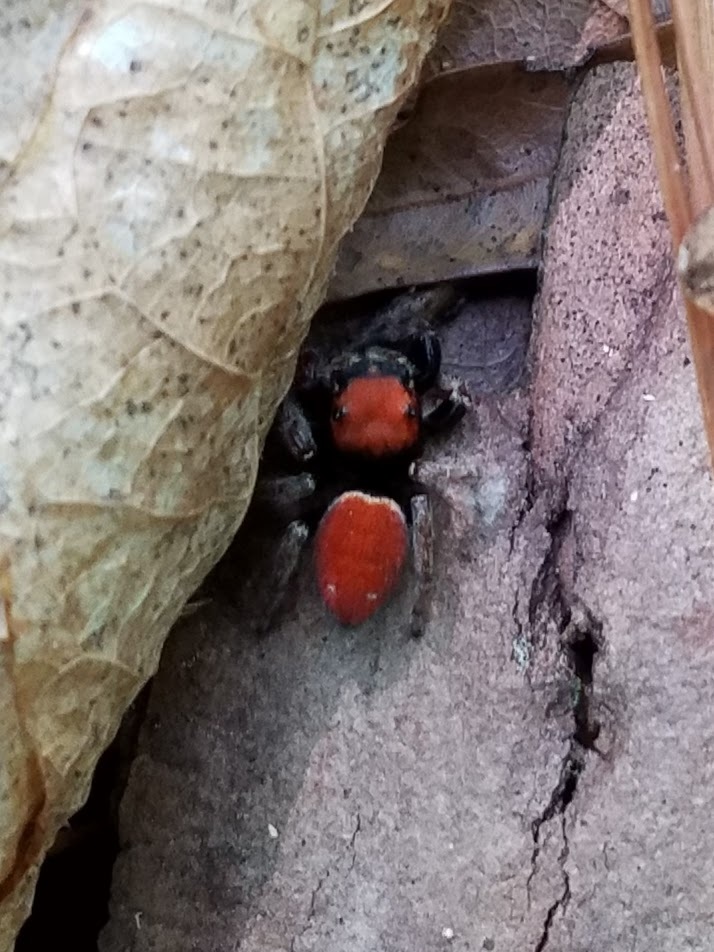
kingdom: Animalia
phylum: Arthropoda
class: Arachnida
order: Araneae
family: Salticidae
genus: Phidippus
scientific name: Phidippus whitmani
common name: Whitman's jumping spider
